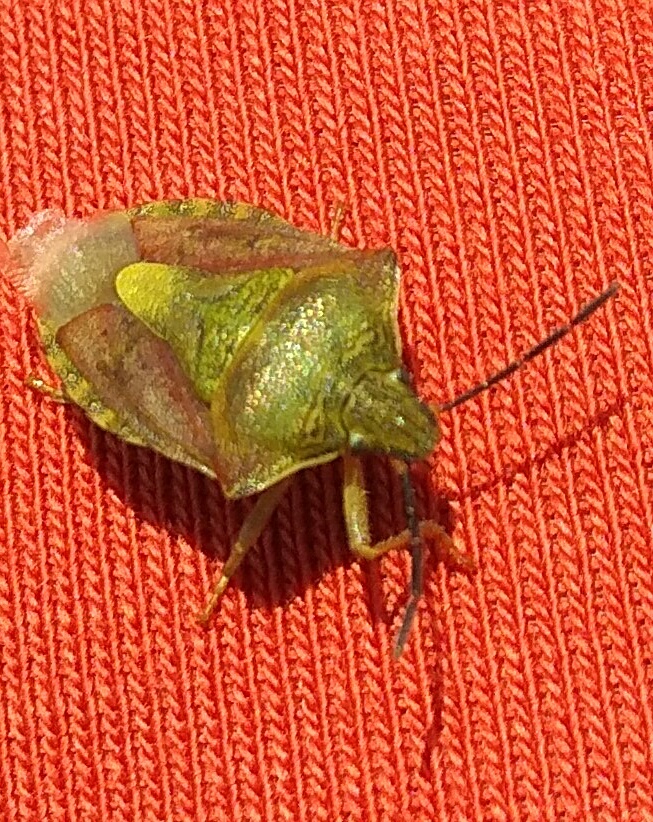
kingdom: Animalia
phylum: Arthropoda
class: Insecta
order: Hemiptera
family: Pentatomidae
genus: Carpocoris
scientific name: Carpocoris purpureipennis
